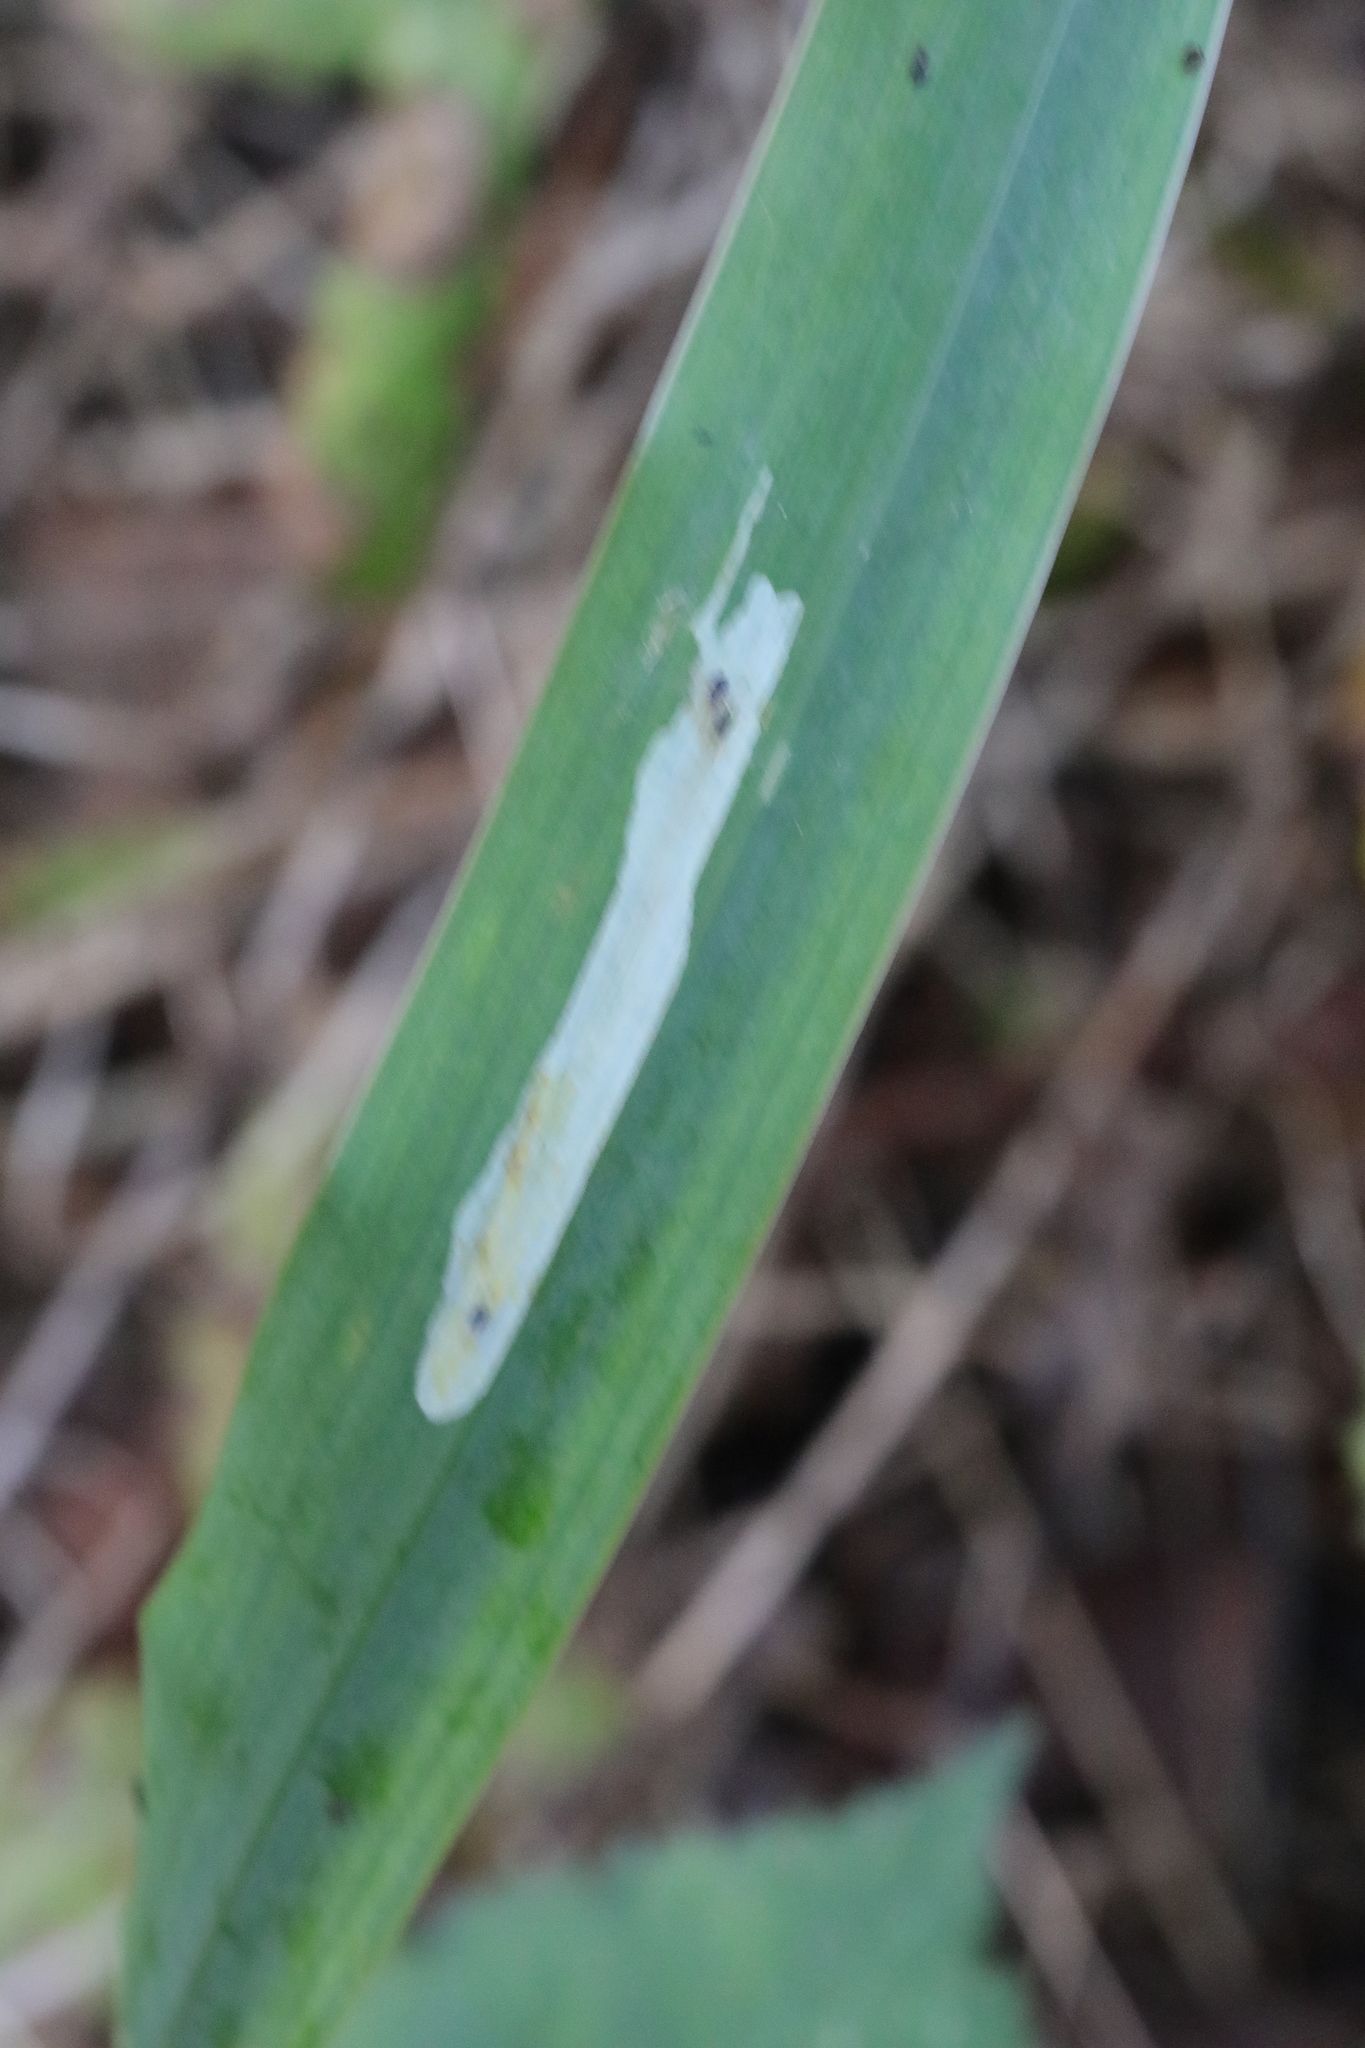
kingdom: Plantae
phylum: Tracheophyta
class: Liliopsida
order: Asparagales
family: Iridaceae
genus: Iris
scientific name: Iris pseudacorus
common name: Yellow flag
